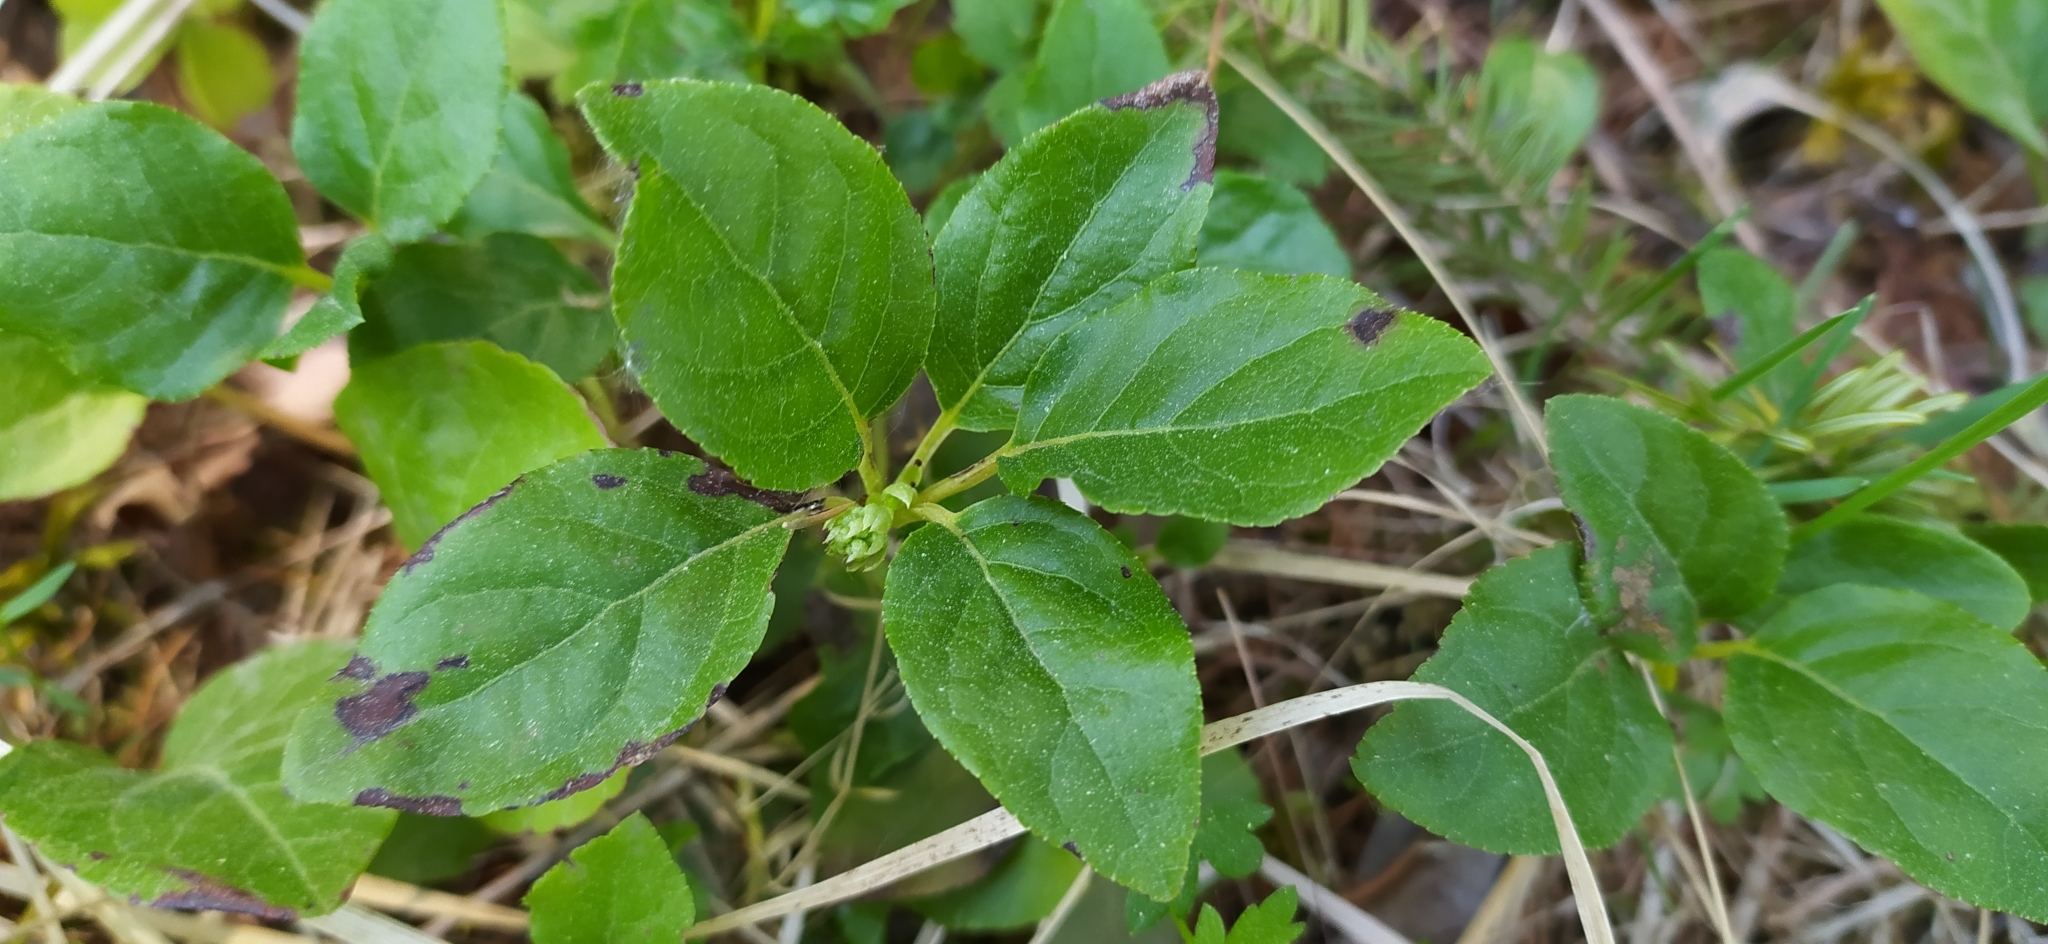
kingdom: Plantae
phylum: Tracheophyta
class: Magnoliopsida
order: Ericales
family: Ericaceae
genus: Orthilia
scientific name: Orthilia secunda
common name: One-sided orthilia
